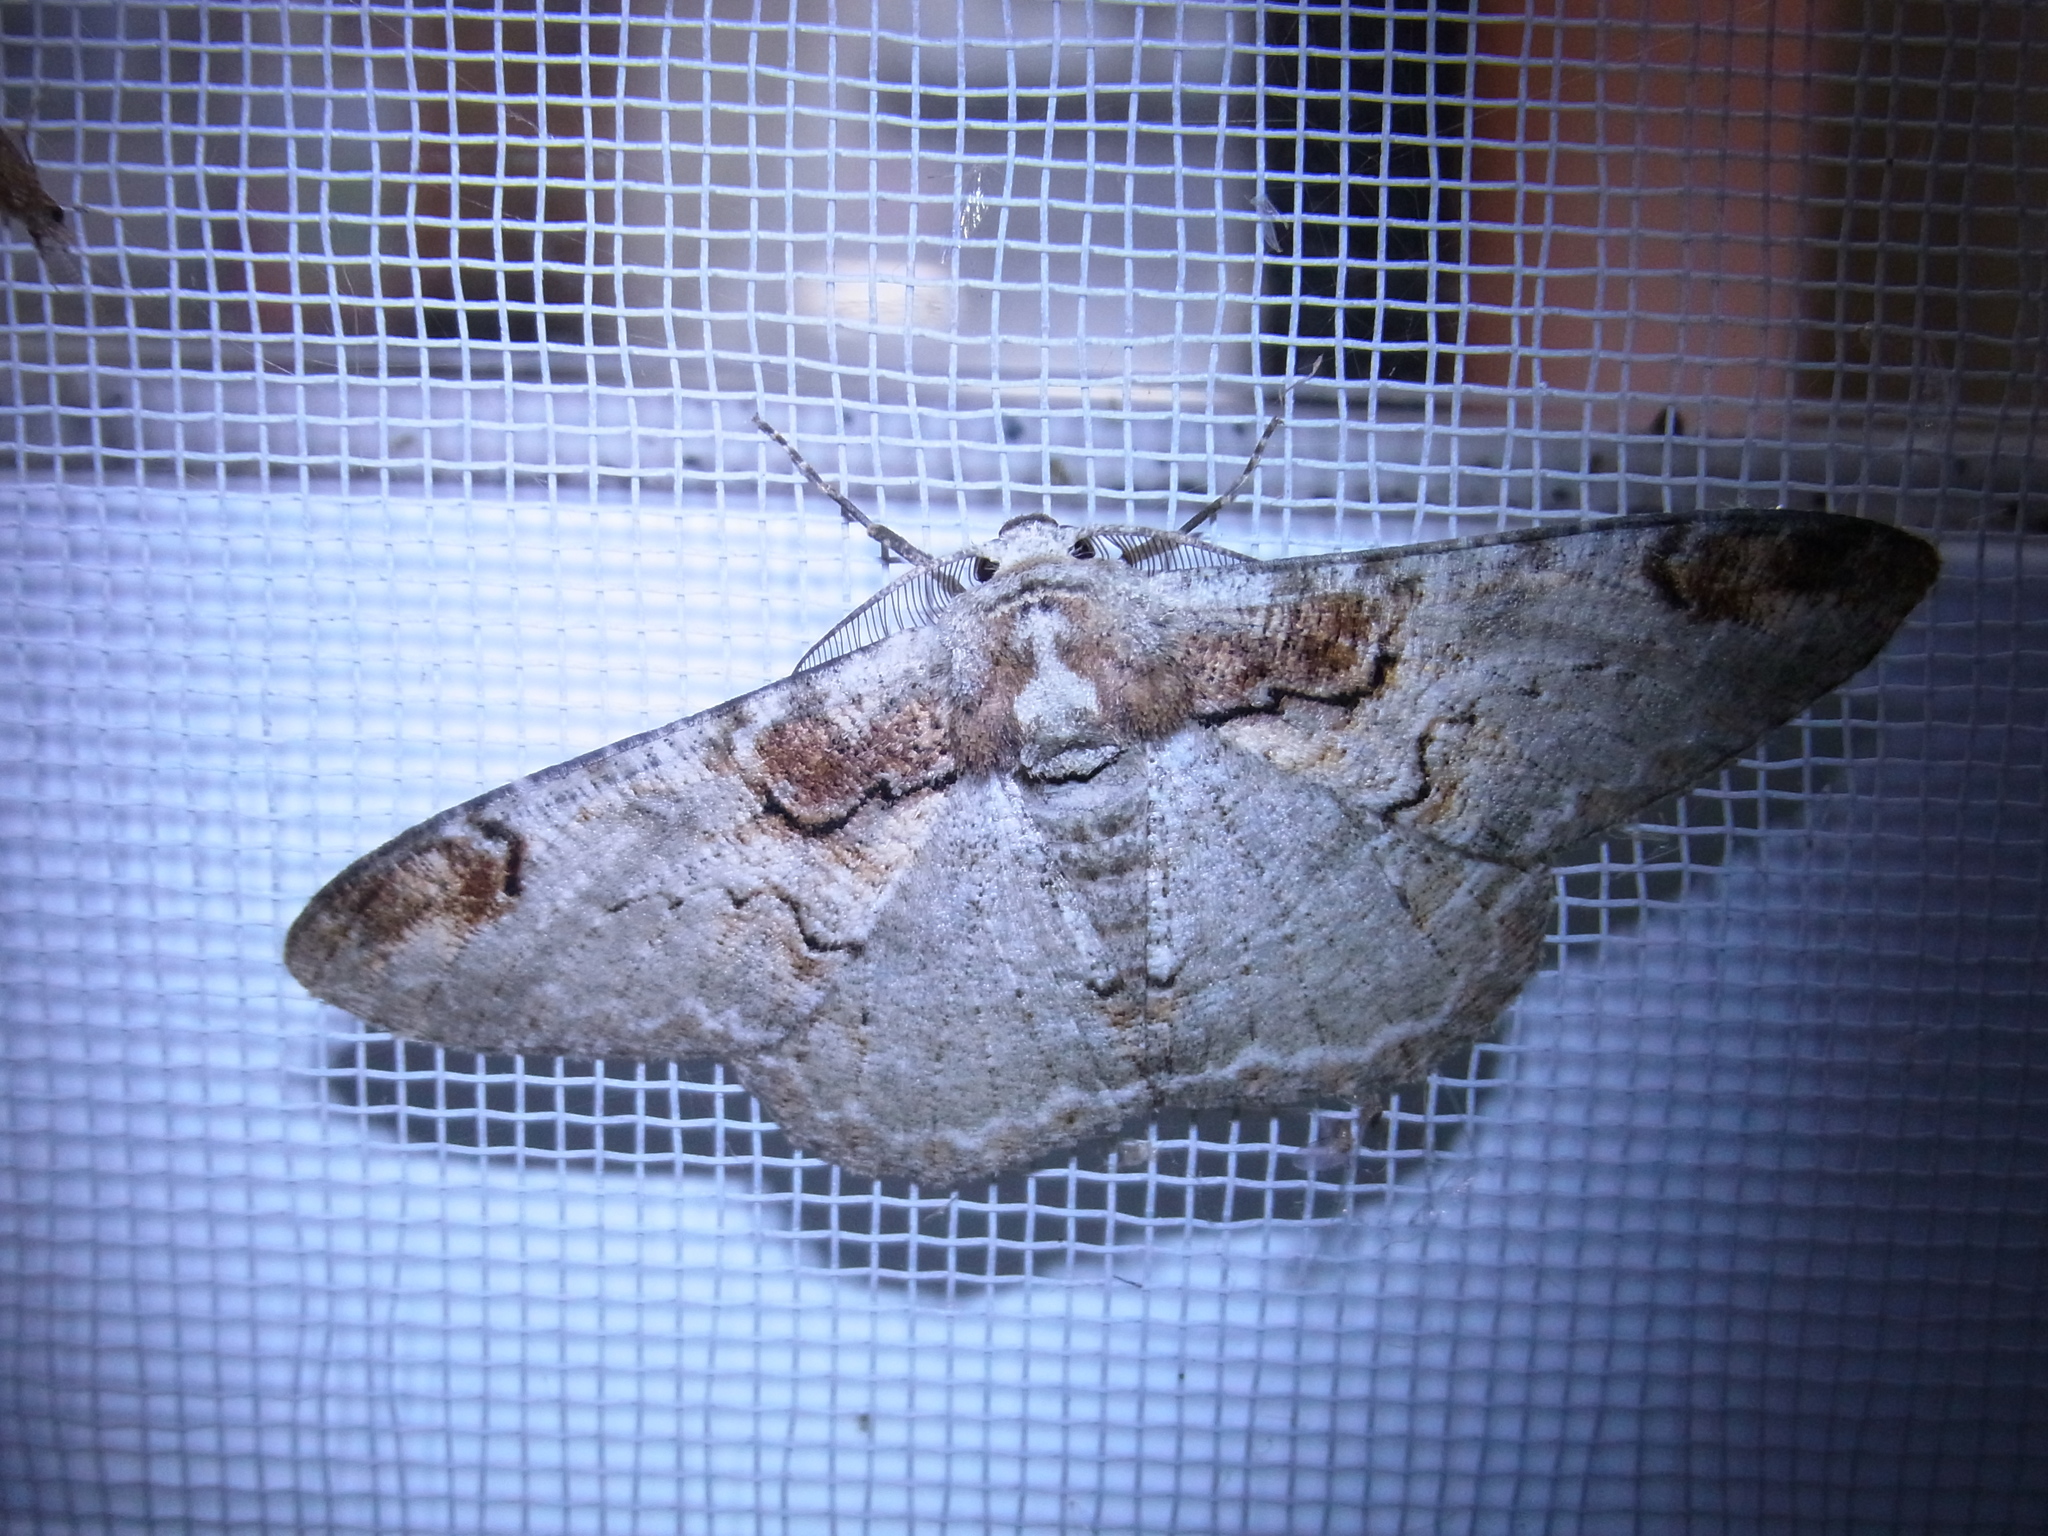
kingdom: Animalia
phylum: Arthropoda
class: Insecta
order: Lepidoptera
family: Geometridae
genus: Amraica
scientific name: Amraica superans
